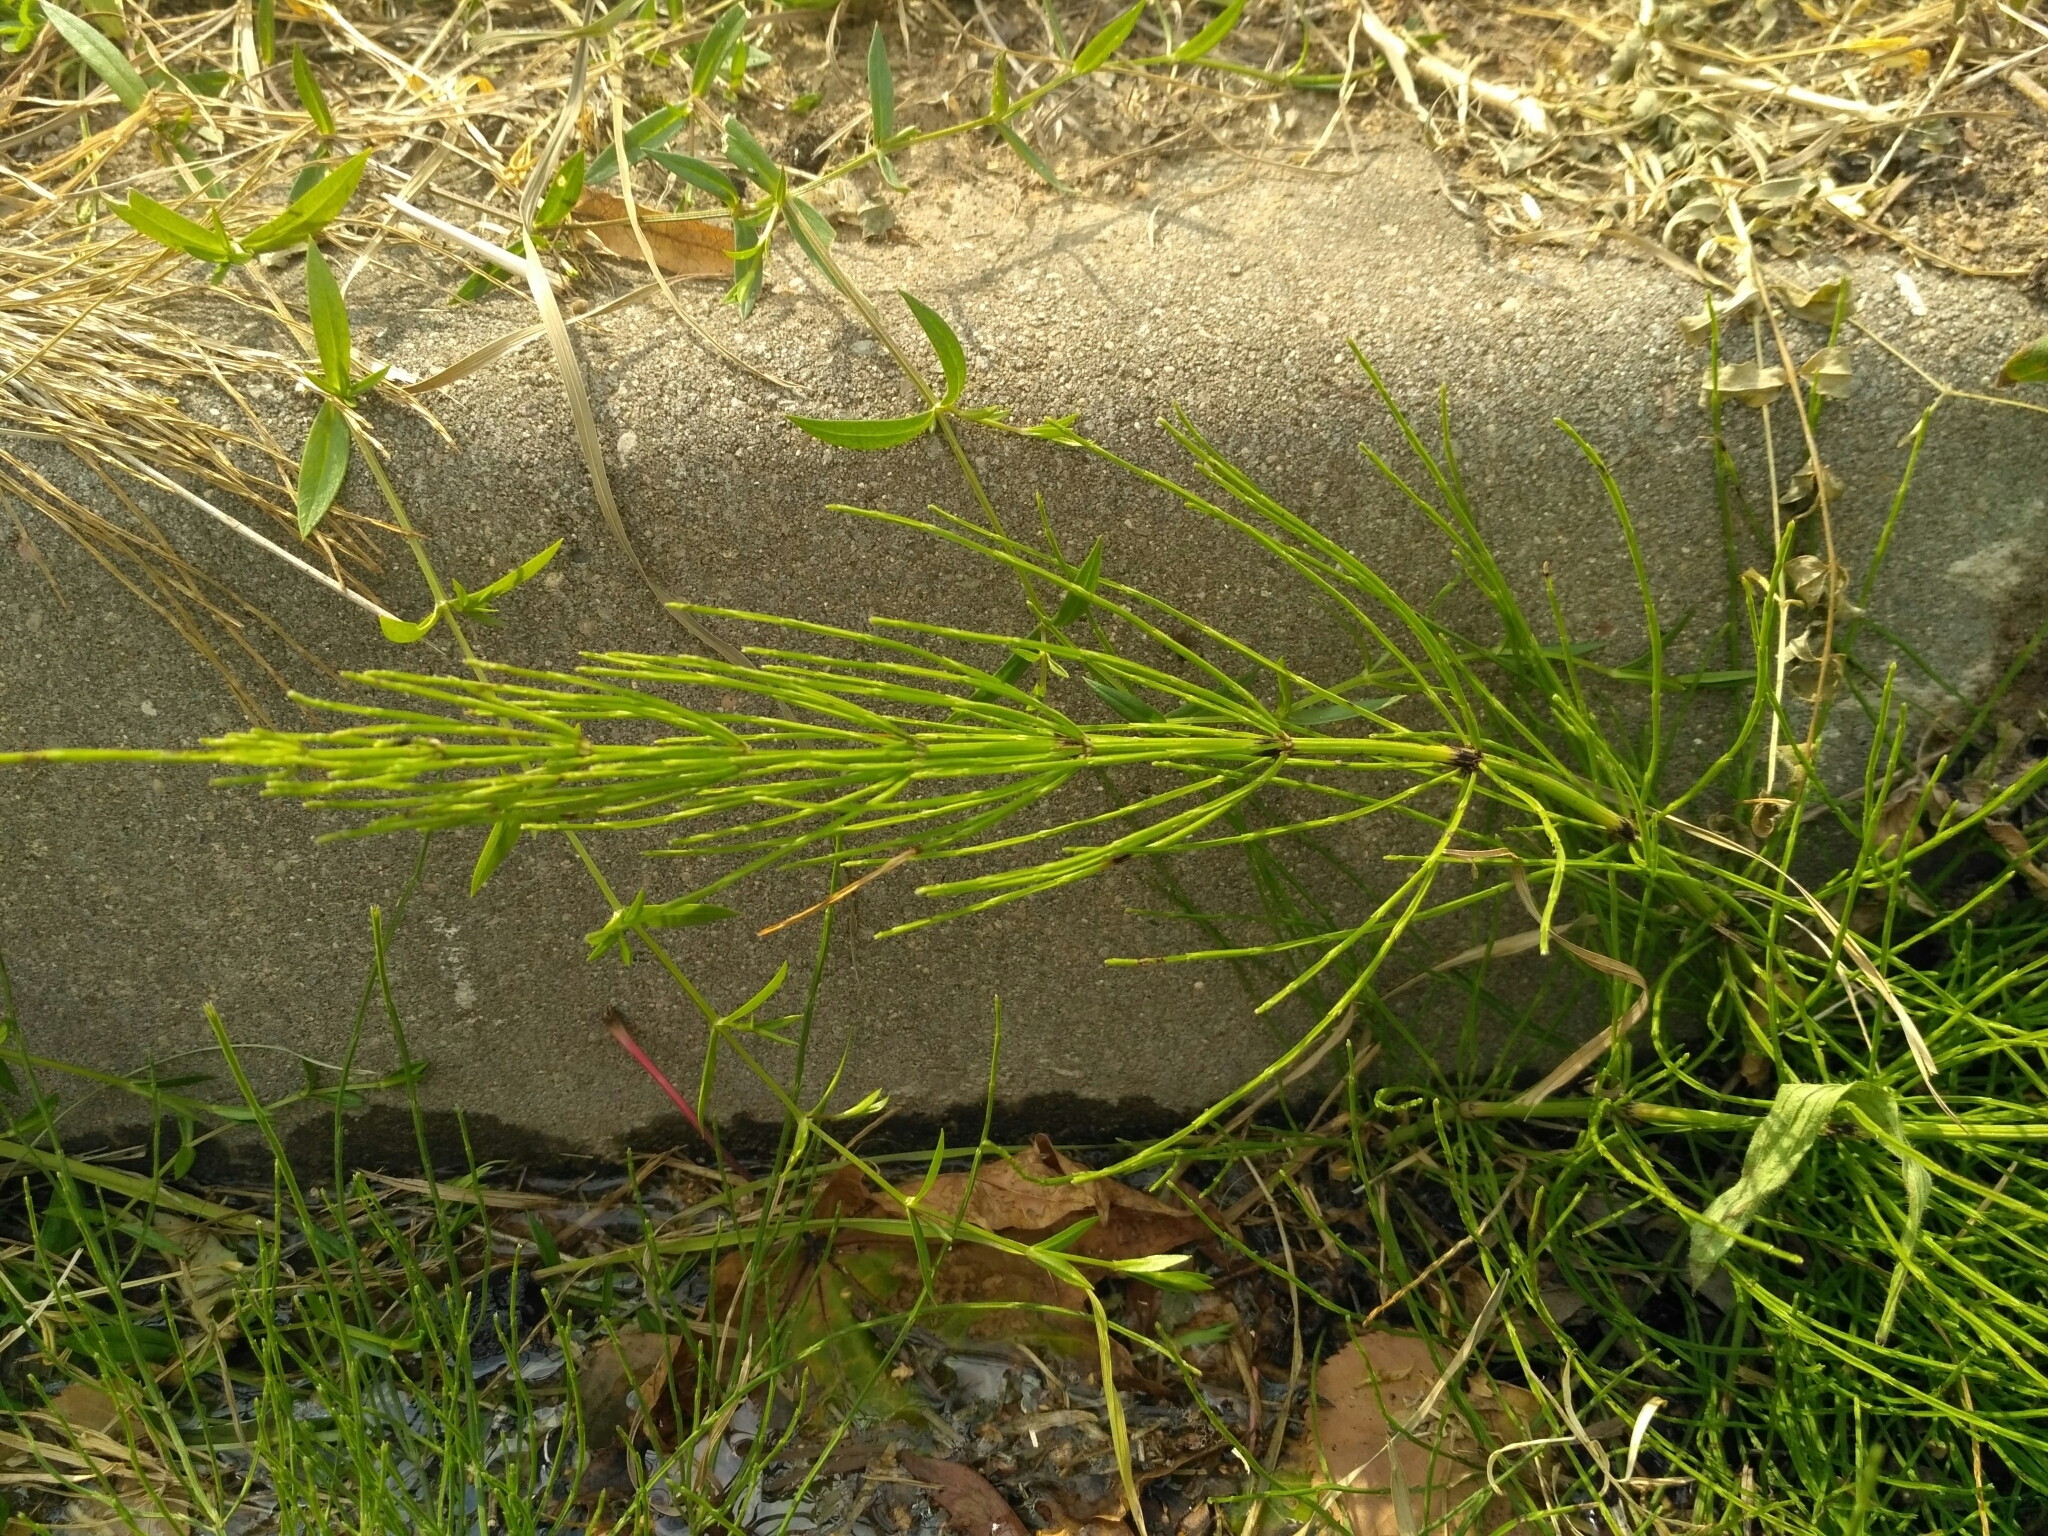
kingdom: Plantae
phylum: Tracheophyta
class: Polypodiopsida
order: Equisetales
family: Equisetaceae
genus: Equisetum
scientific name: Equisetum arvense
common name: Field horsetail
